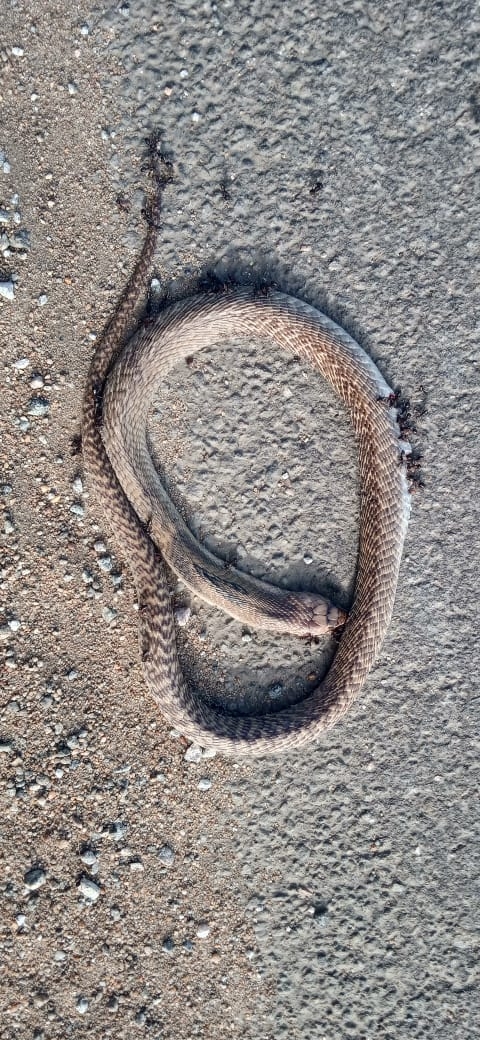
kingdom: Animalia
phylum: Chordata
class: Squamata
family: Elapidae
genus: Naja
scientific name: Naja naja
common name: Indian cobra
